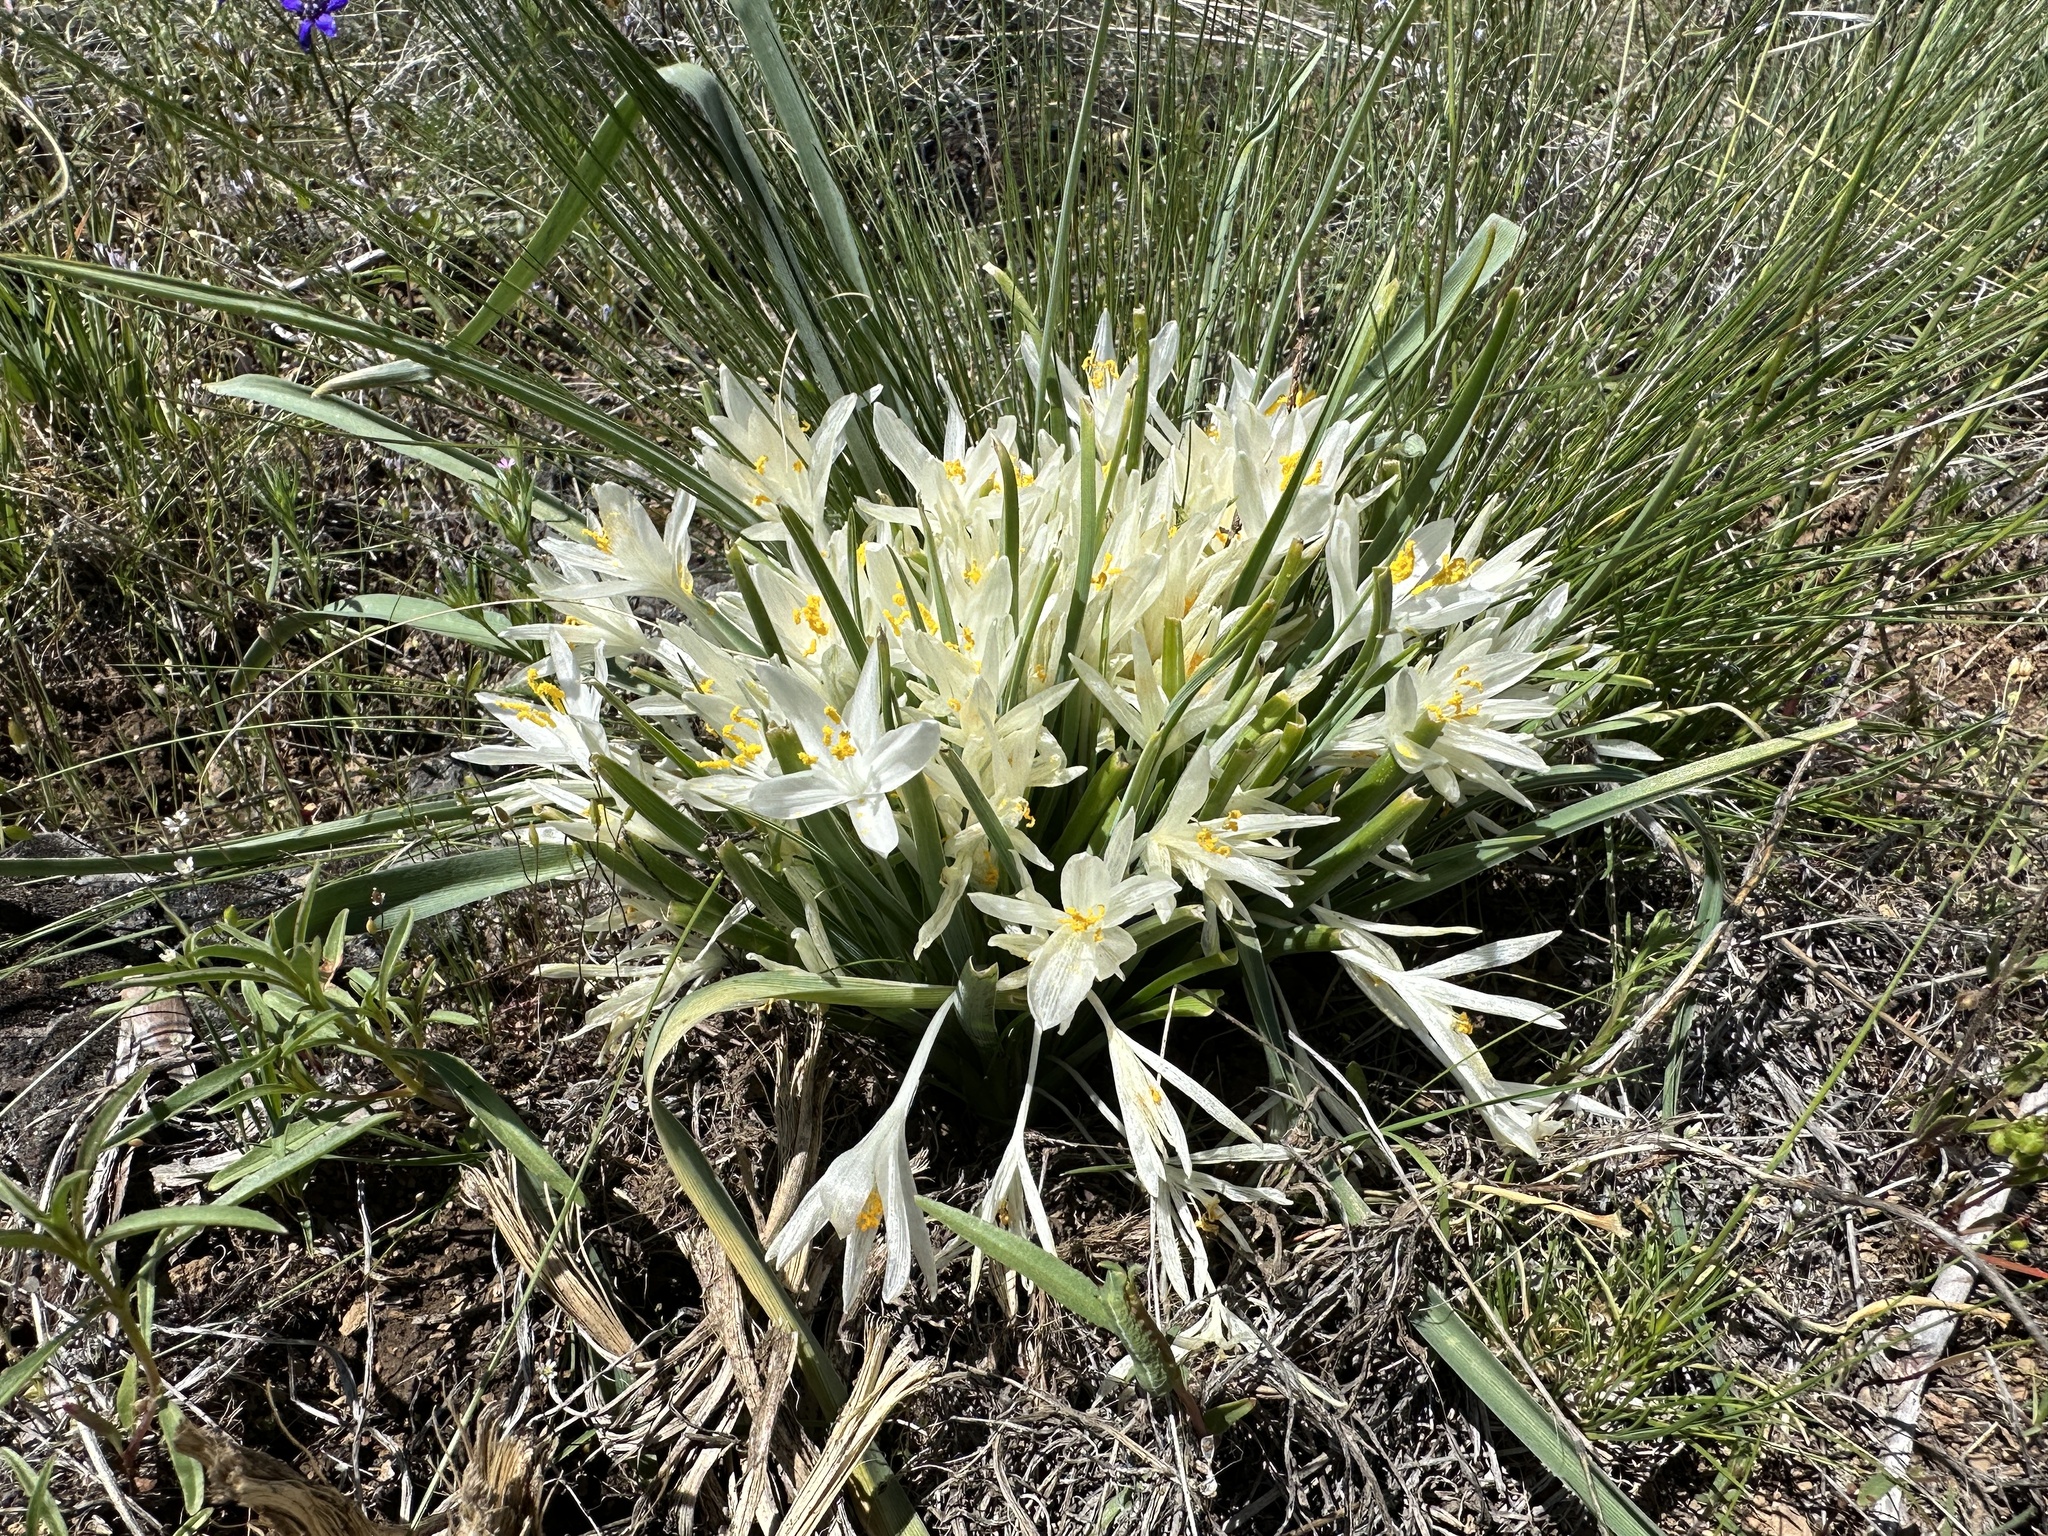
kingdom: Plantae
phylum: Tracheophyta
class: Liliopsida
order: Asparagales
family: Asparagaceae
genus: Leucocrinum
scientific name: Leucocrinum montanum
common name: Mountain-lily
